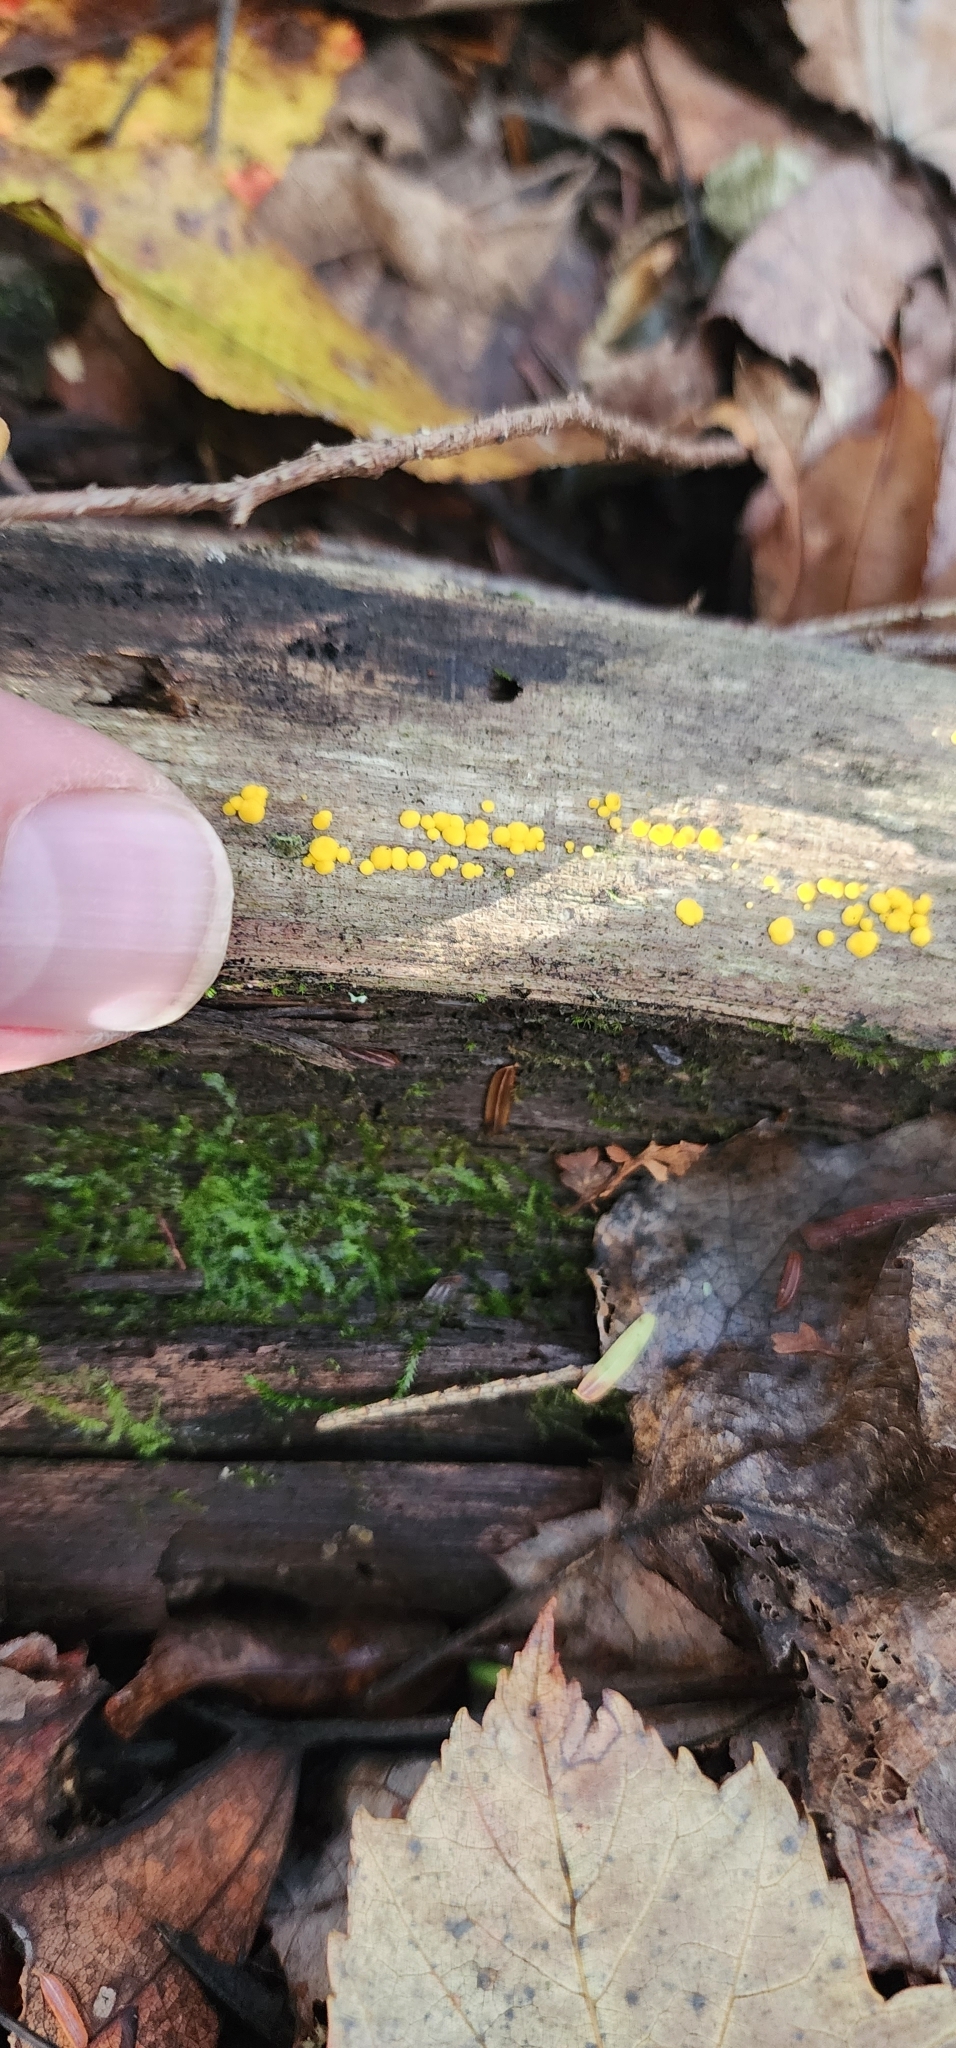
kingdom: Fungi
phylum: Ascomycota
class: Leotiomycetes
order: Helotiales
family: Pezizellaceae
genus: Calycina
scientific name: Calycina citrina
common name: Yellow fairy cups
